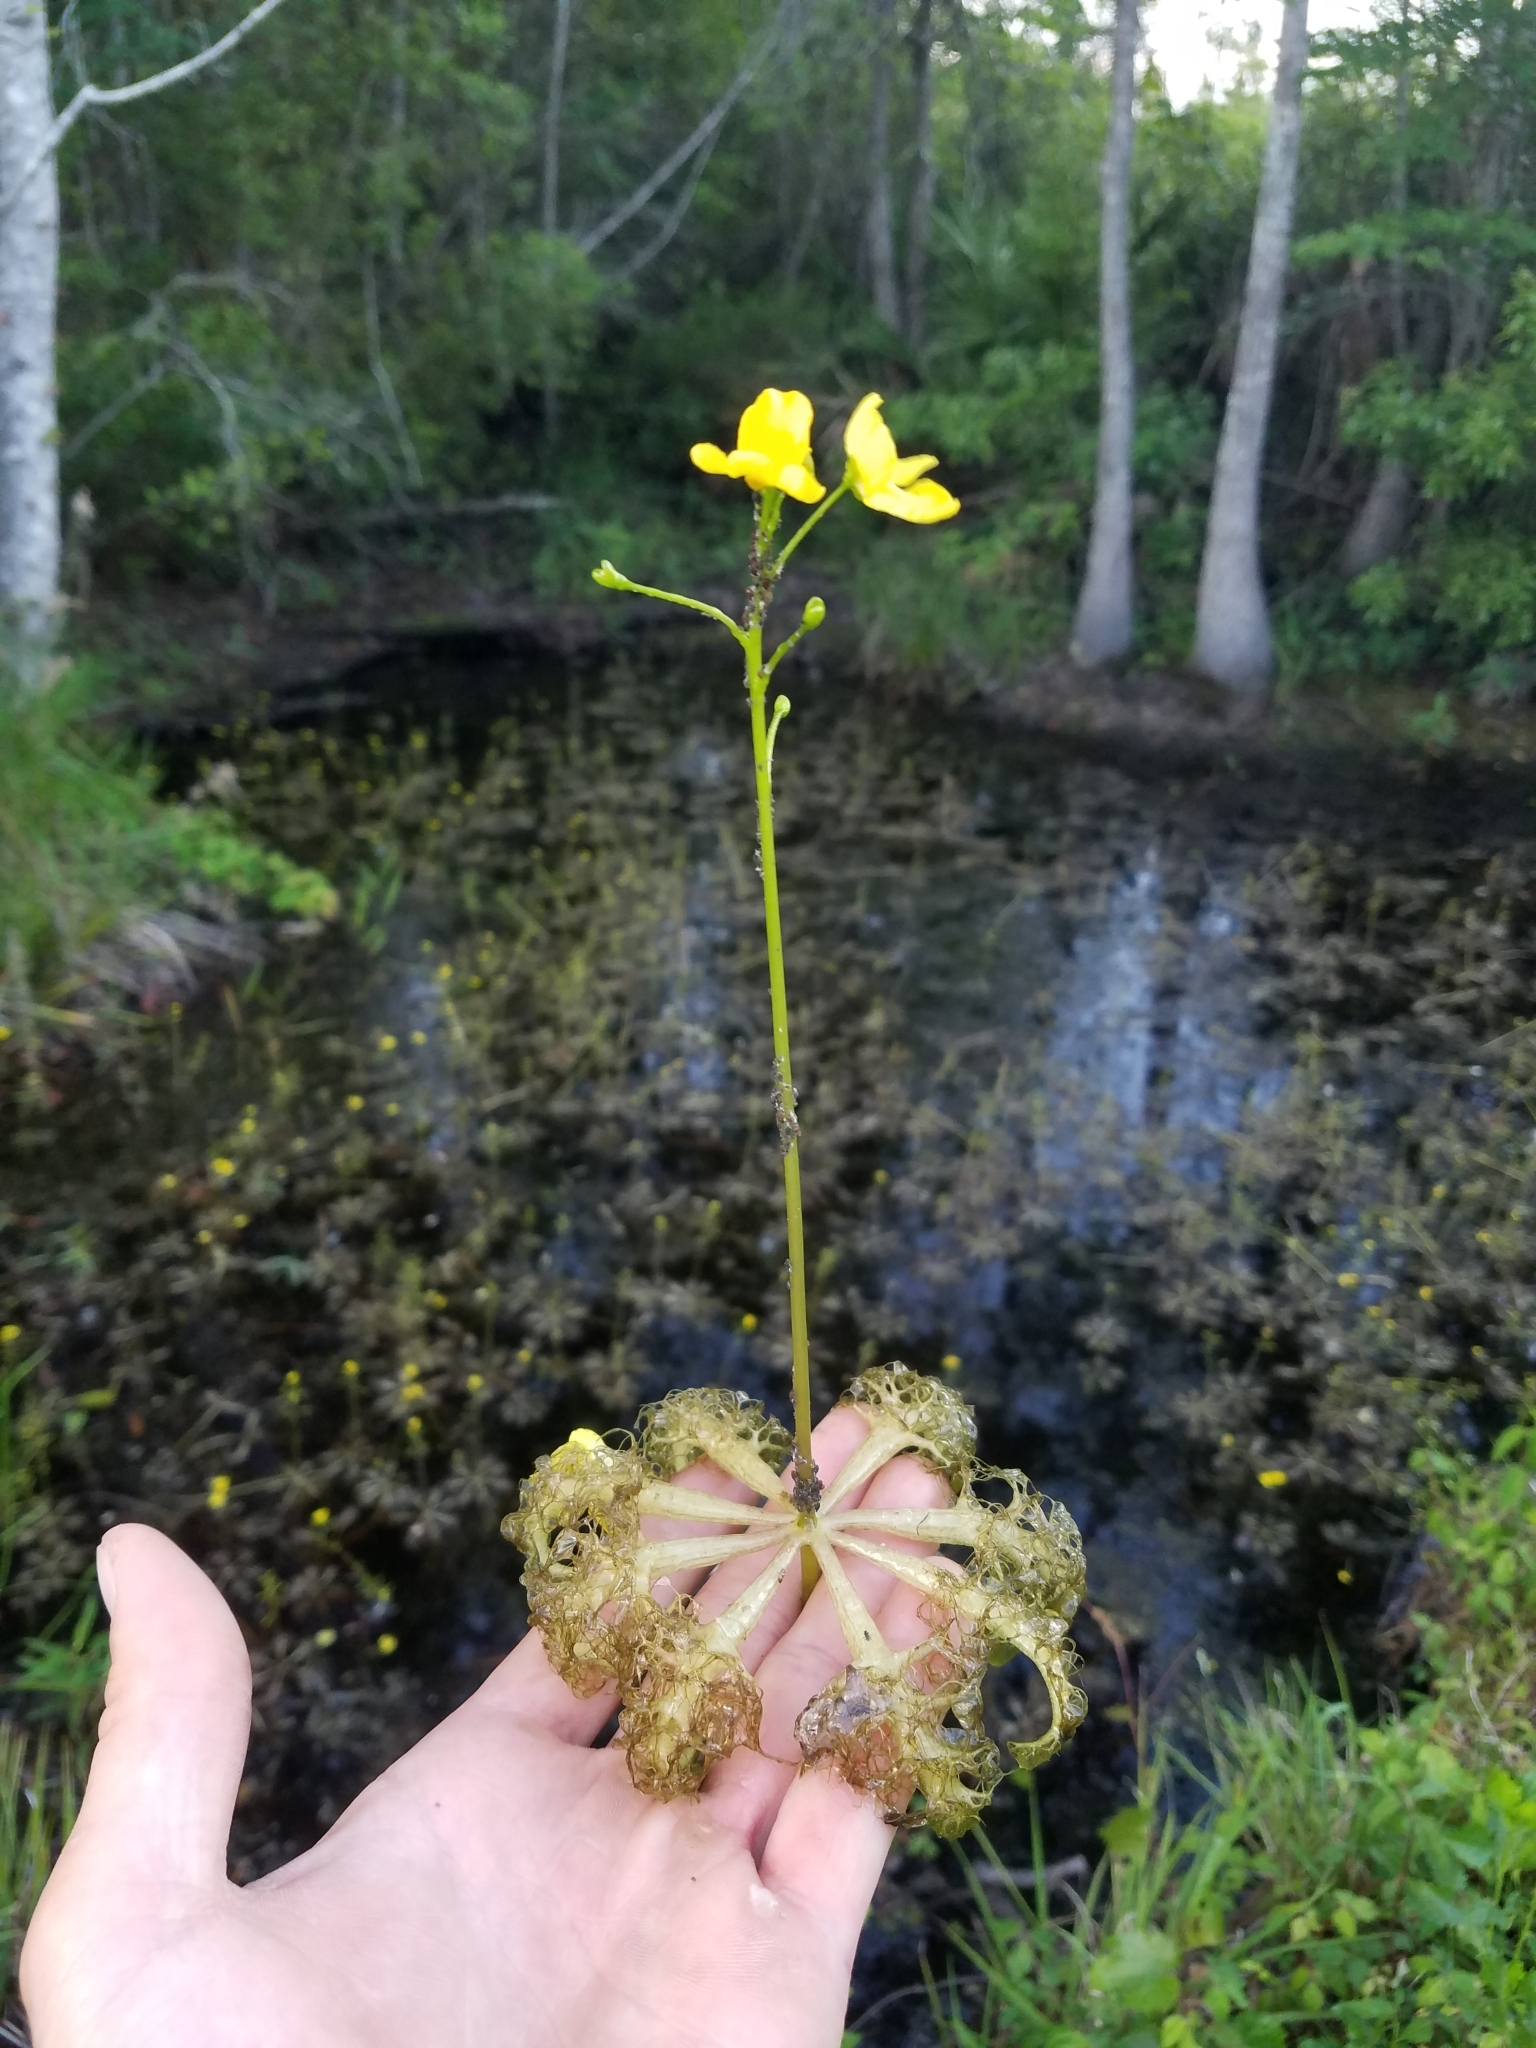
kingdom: Plantae
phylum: Tracheophyta
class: Magnoliopsida
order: Lamiales
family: Lentibulariaceae
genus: Utricularia
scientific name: Utricularia inflata
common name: Floating bladderwort
